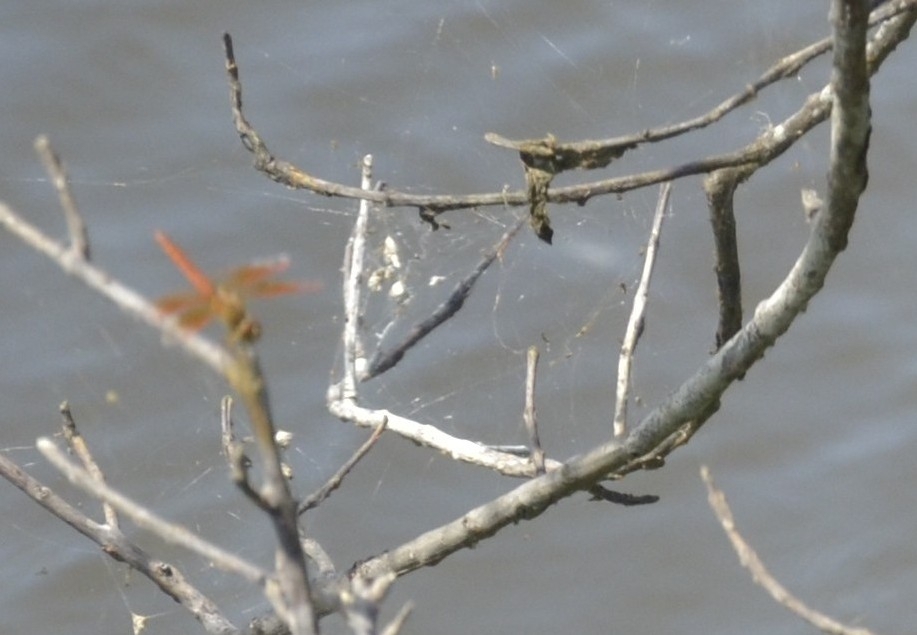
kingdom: Animalia
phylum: Arthropoda
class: Insecta
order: Odonata
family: Libellulidae
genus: Brachythemis
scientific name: Brachythemis contaminata
